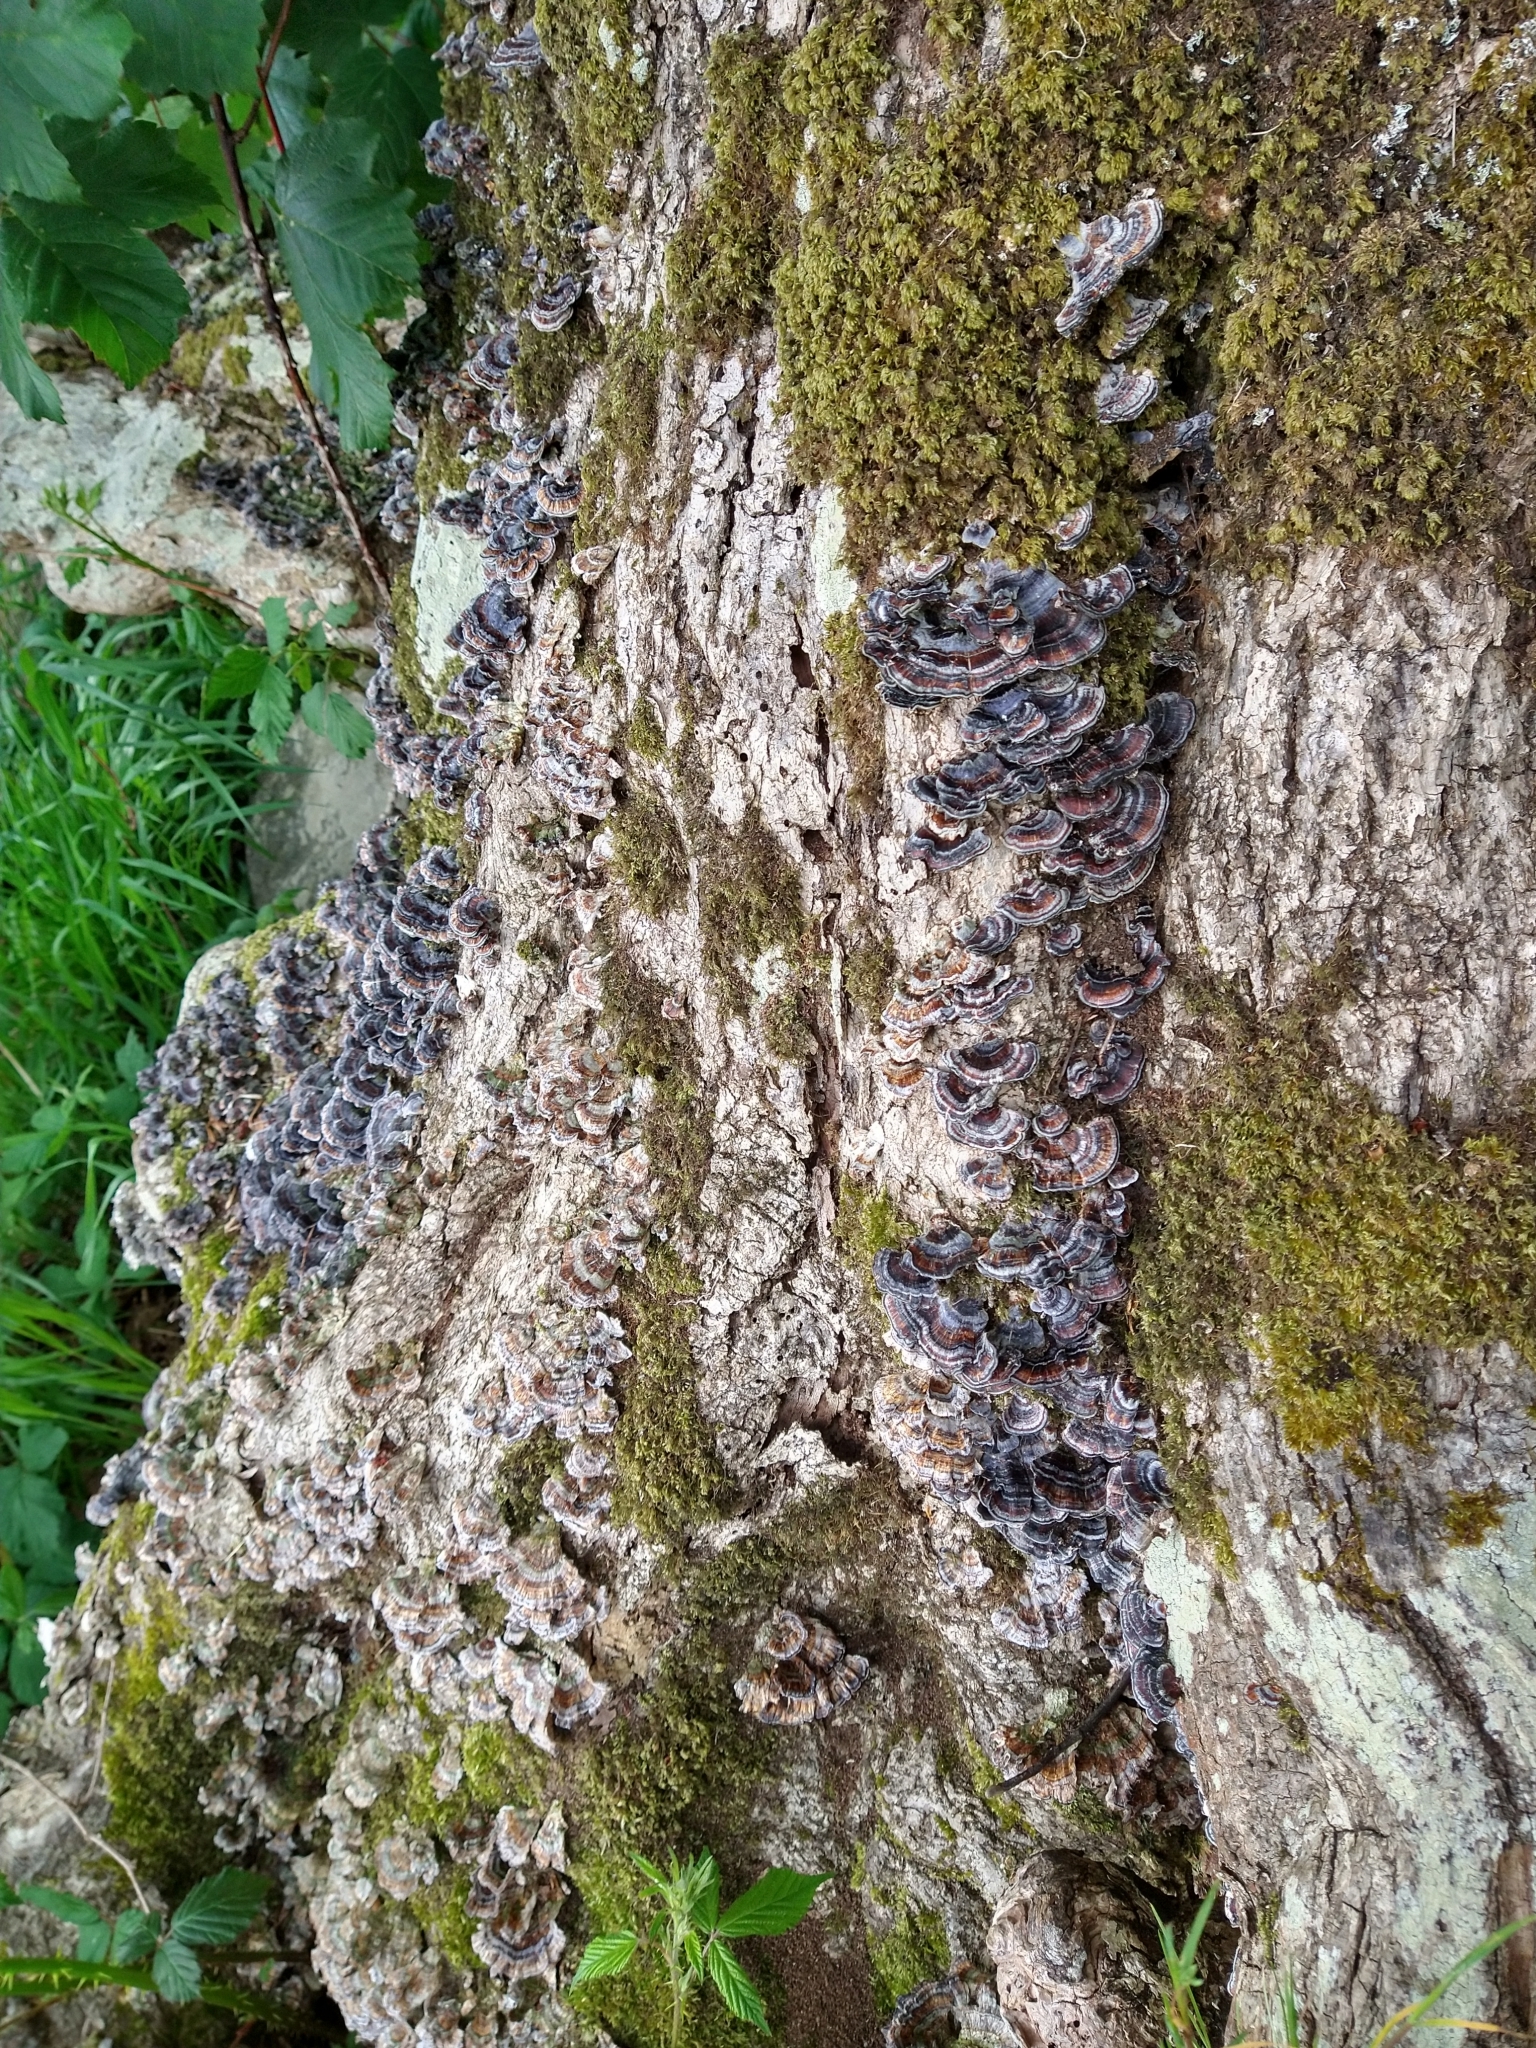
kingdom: Fungi
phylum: Basidiomycota
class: Agaricomycetes
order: Polyporales
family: Polyporaceae
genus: Trametes
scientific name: Trametes versicolor
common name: Turkeytail
